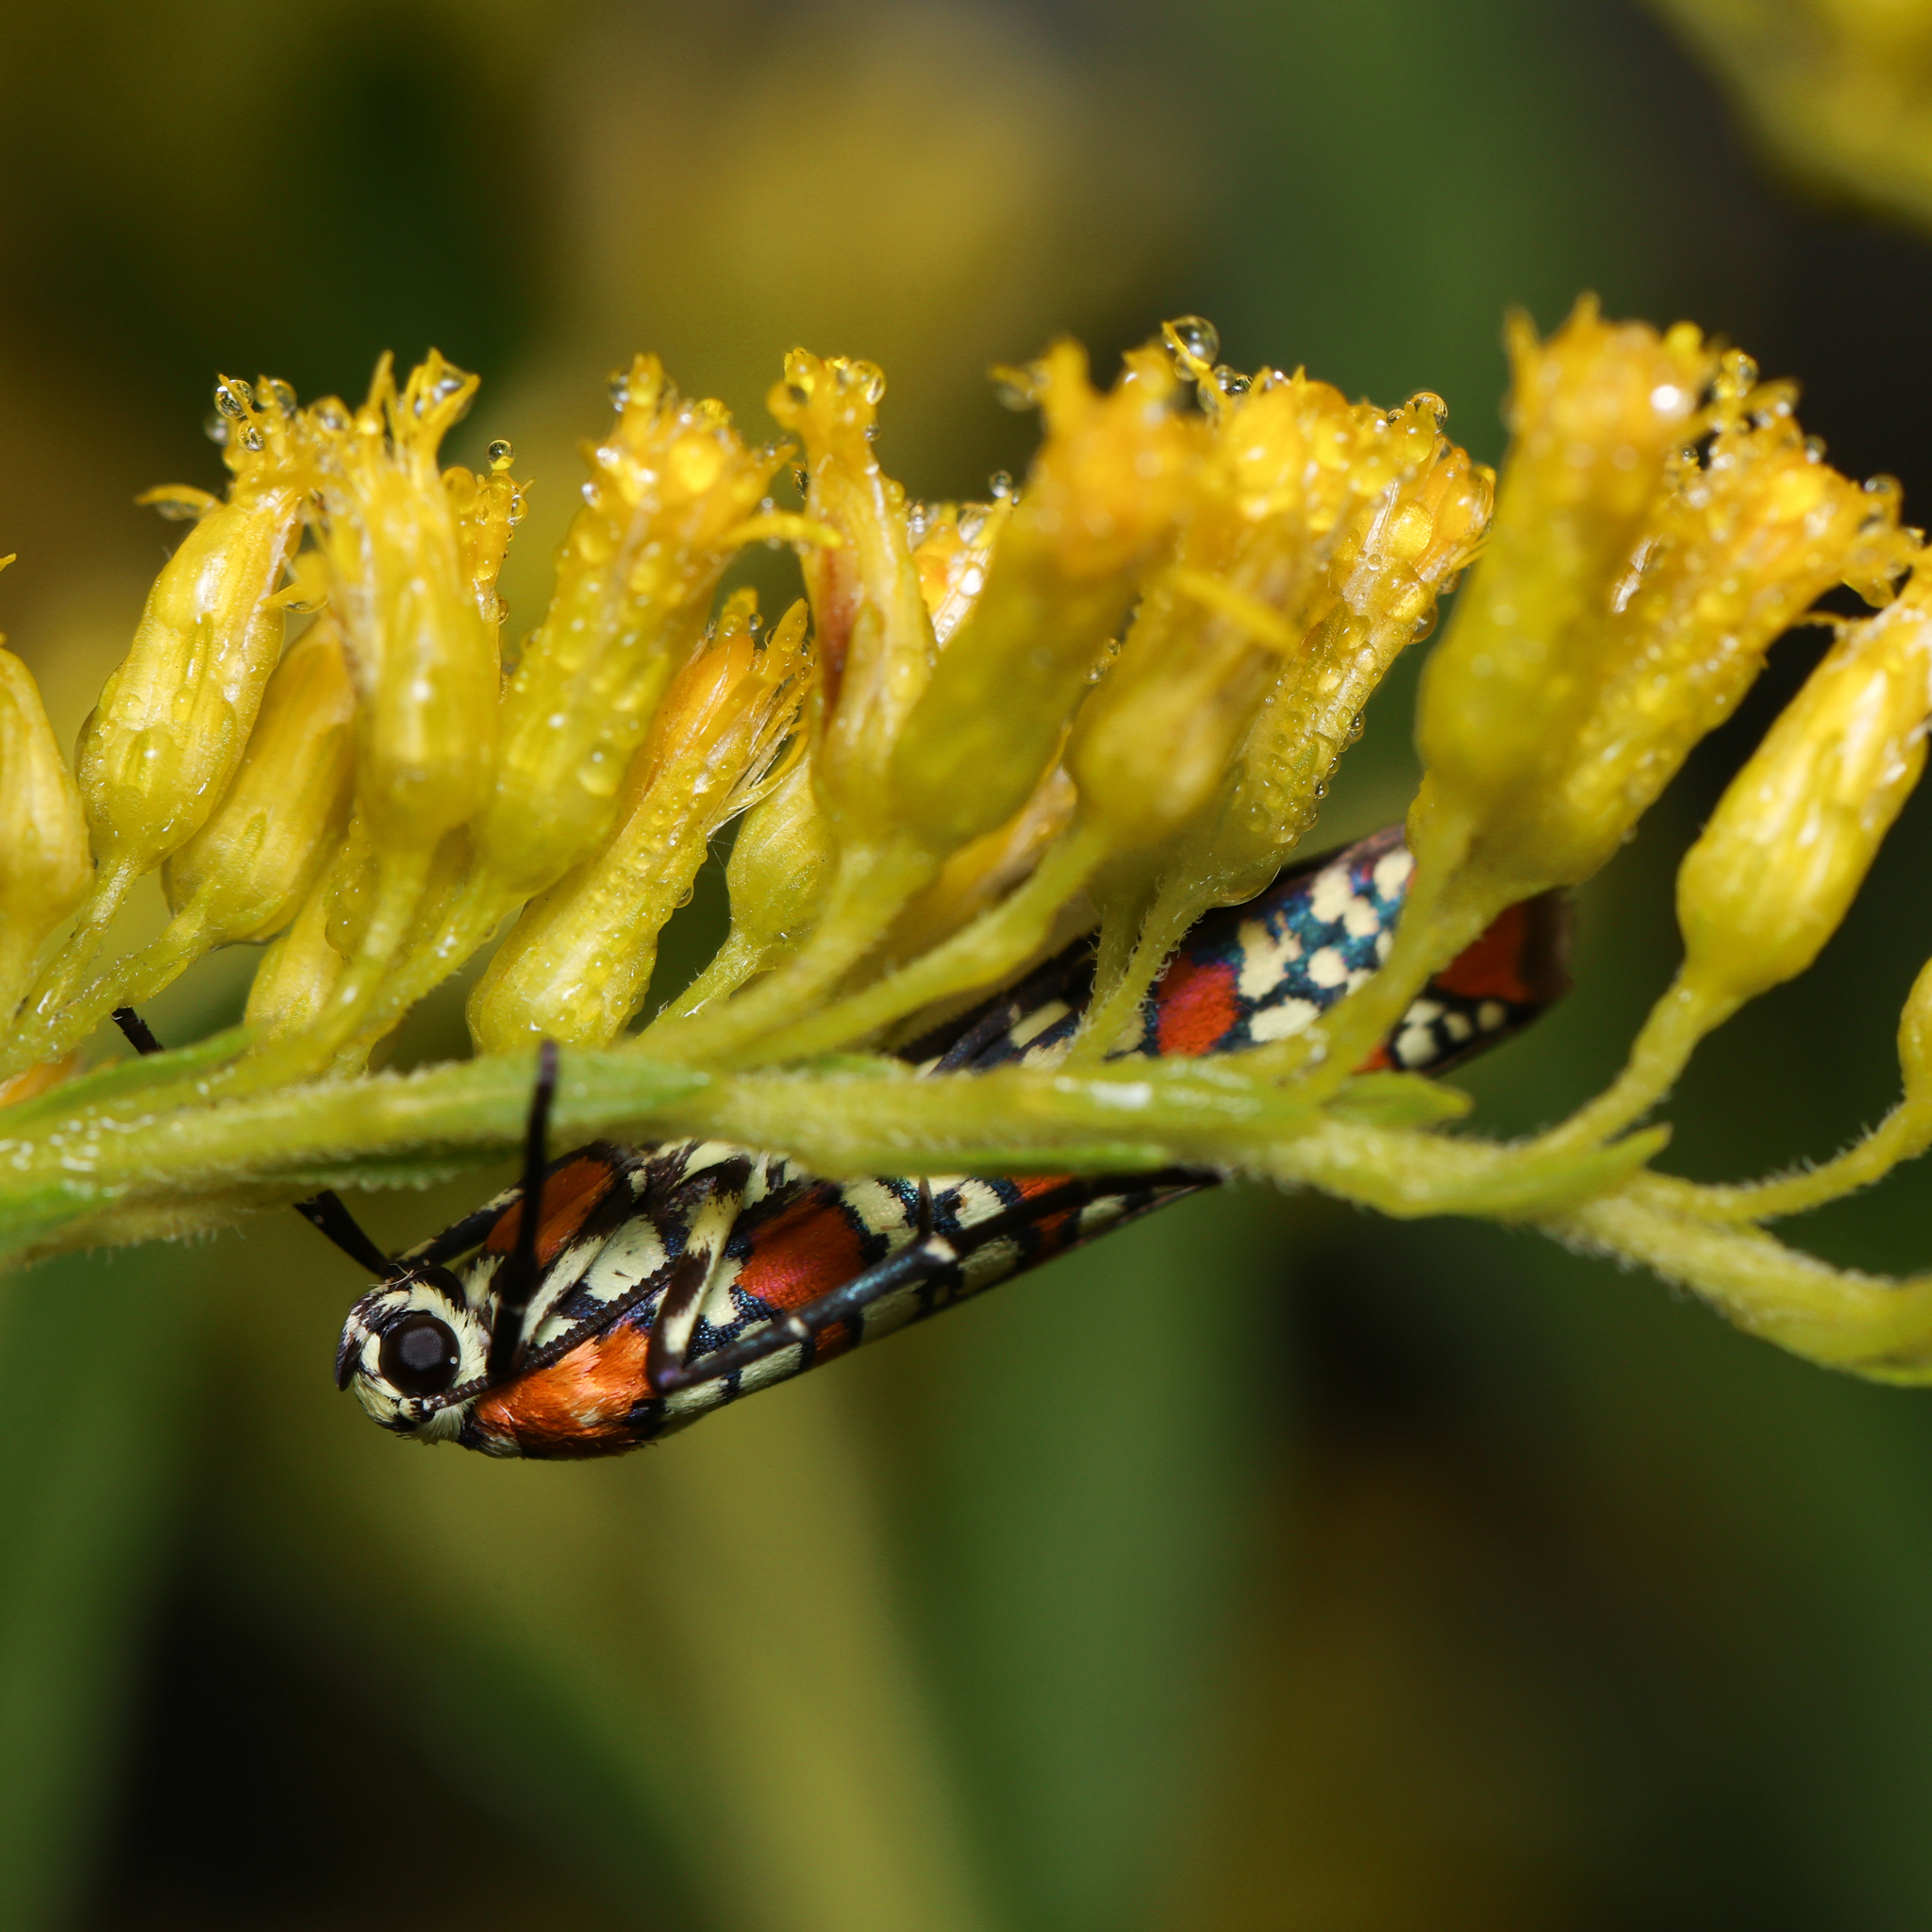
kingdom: Animalia
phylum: Arthropoda
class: Insecta
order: Lepidoptera
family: Attevidae
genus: Atteva
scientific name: Atteva punctella
